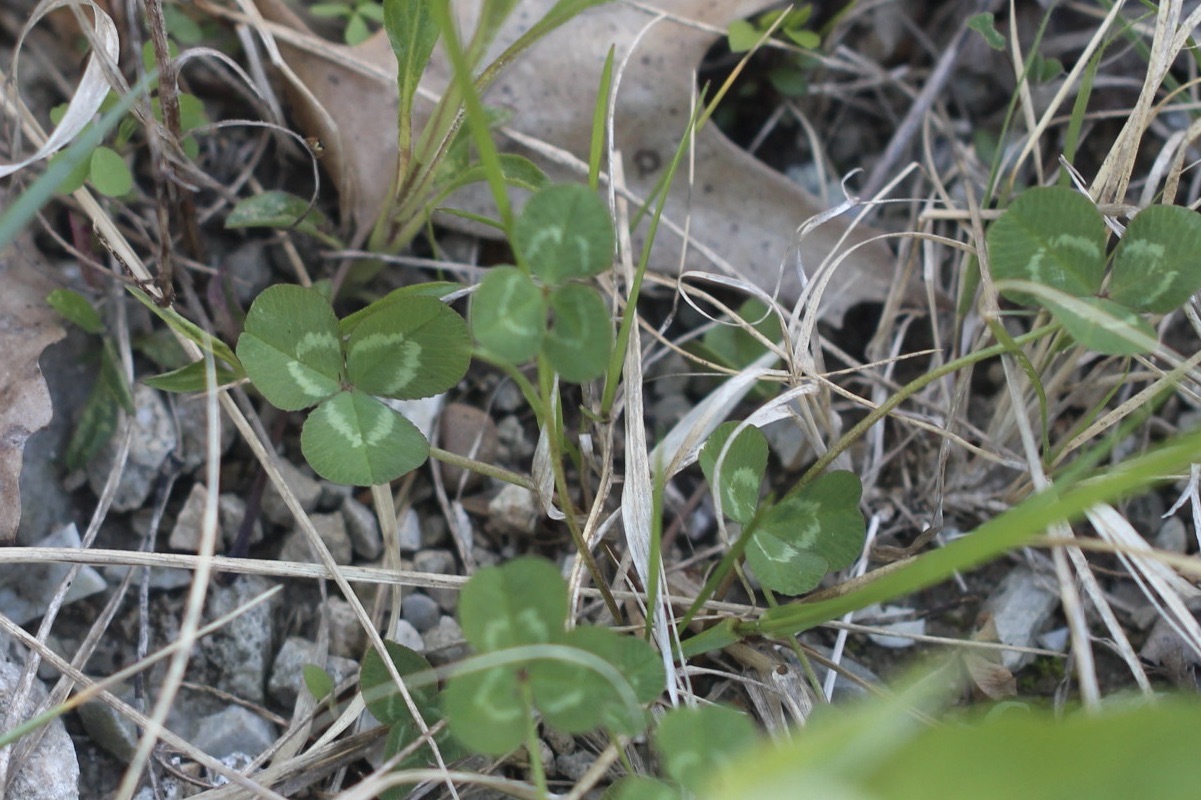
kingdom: Plantae
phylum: Tracheophyta
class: Magnoliopsida
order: Fabales
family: Fabaceae
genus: Trifolium
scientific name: Trifolium repens
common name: White clover
